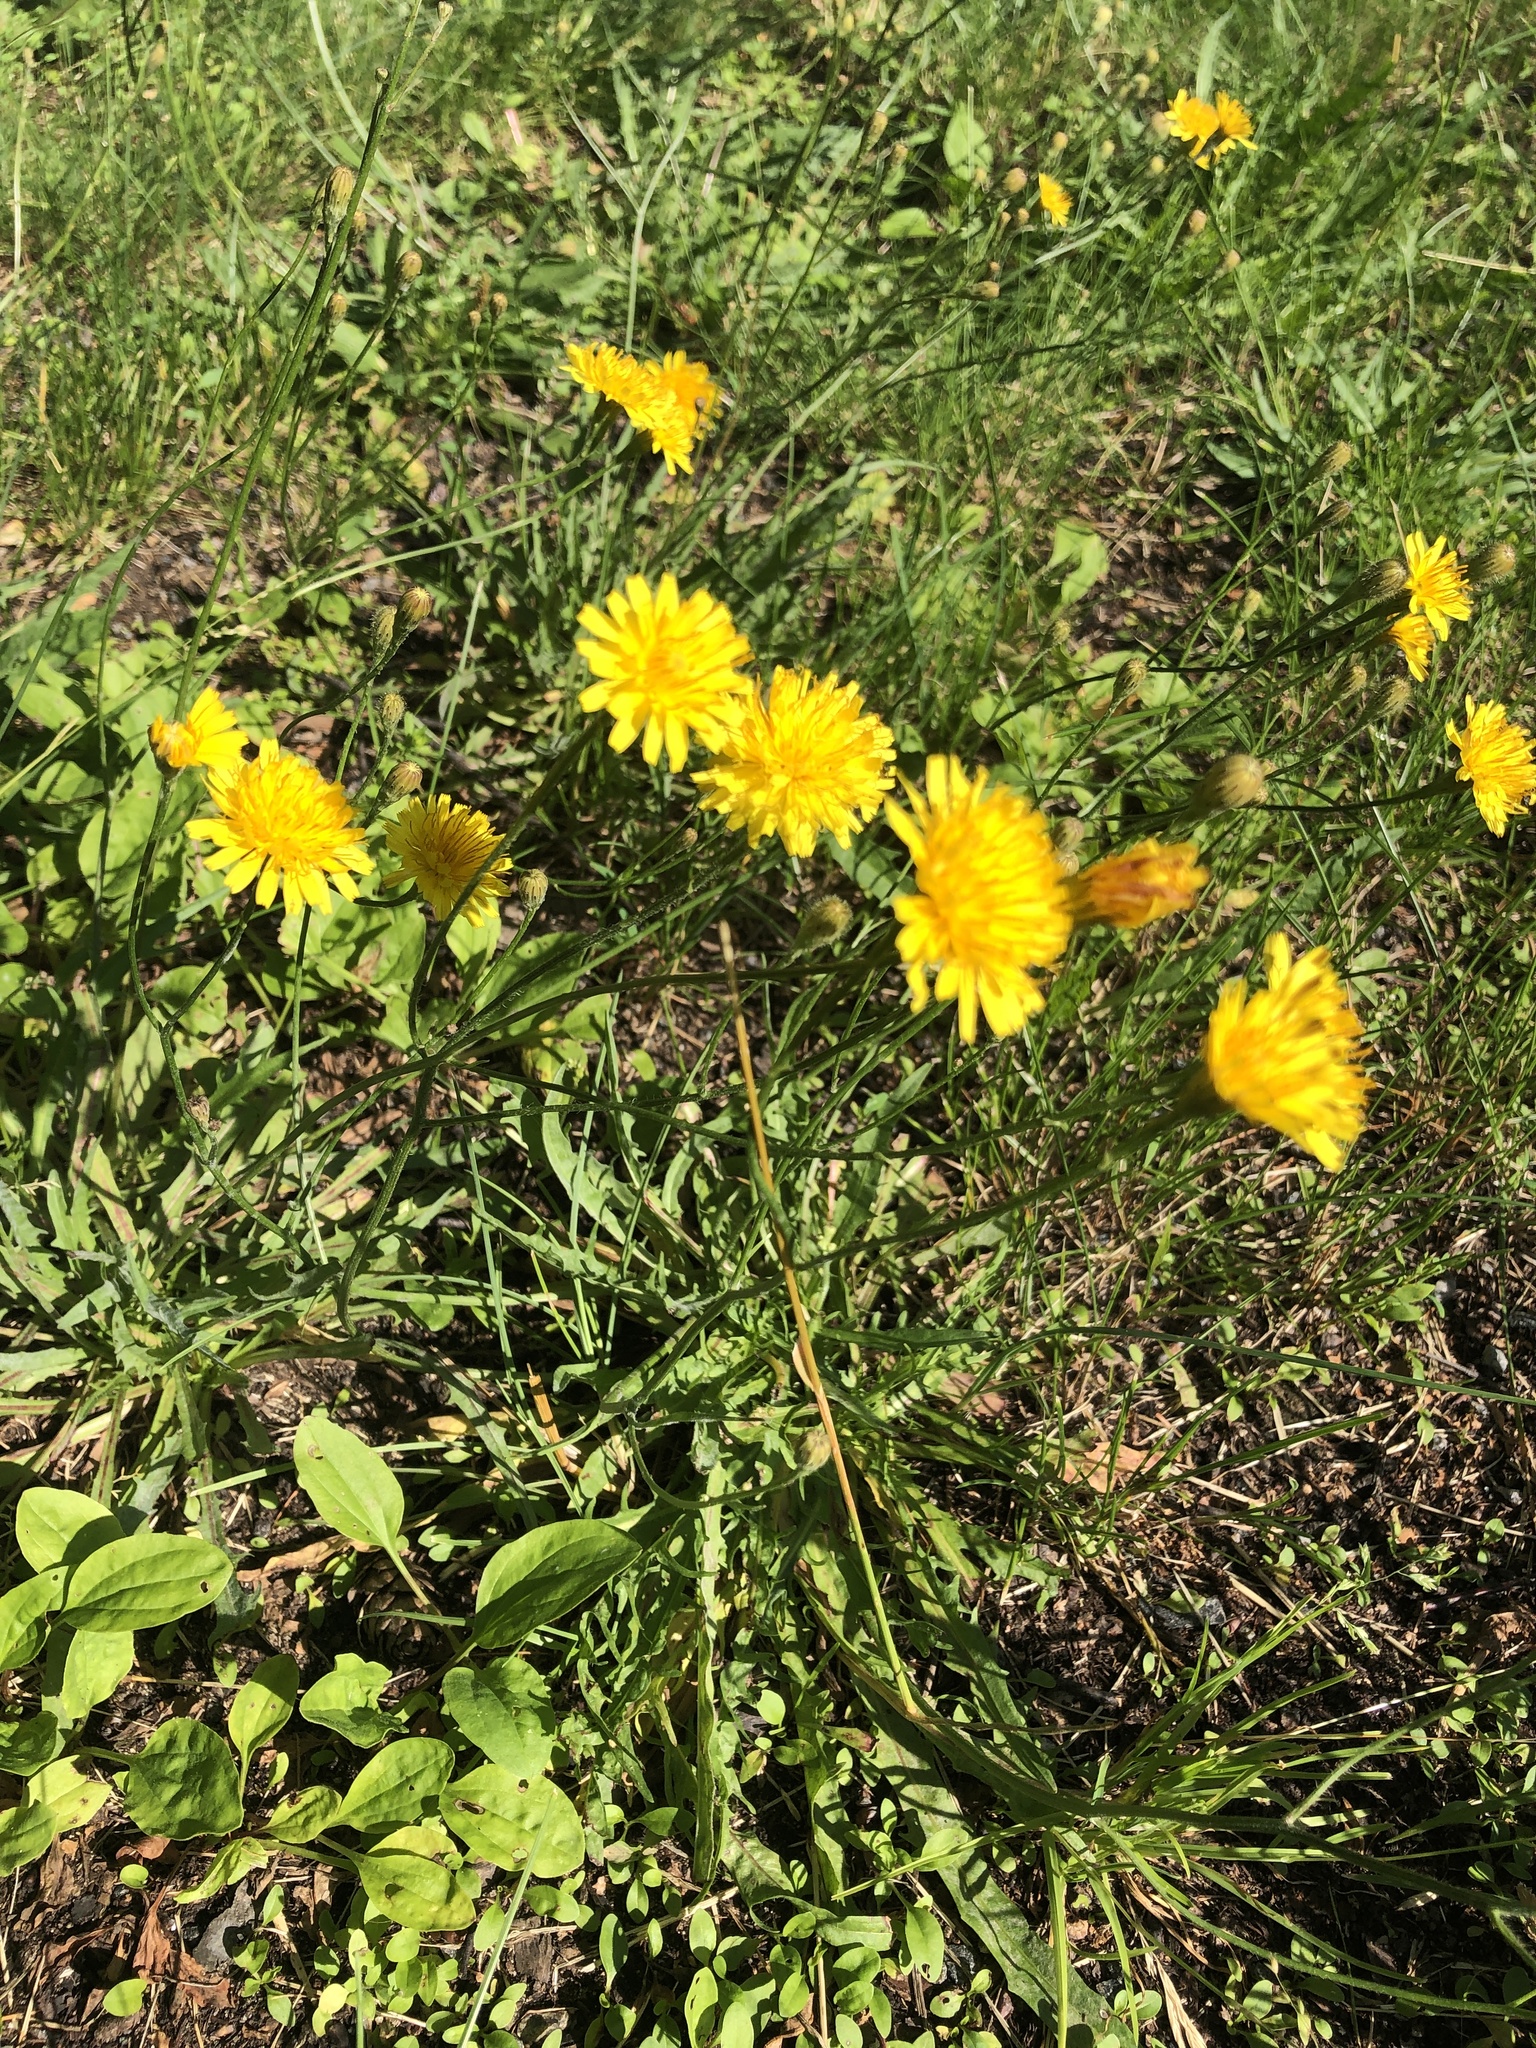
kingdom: Plantae
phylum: Tracheophyta
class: Magnoliopsida
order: Asterales
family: Asteraceae
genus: Scorzoneroides
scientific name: Scorzoneroides autumnalis
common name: Autumn hawkbit
